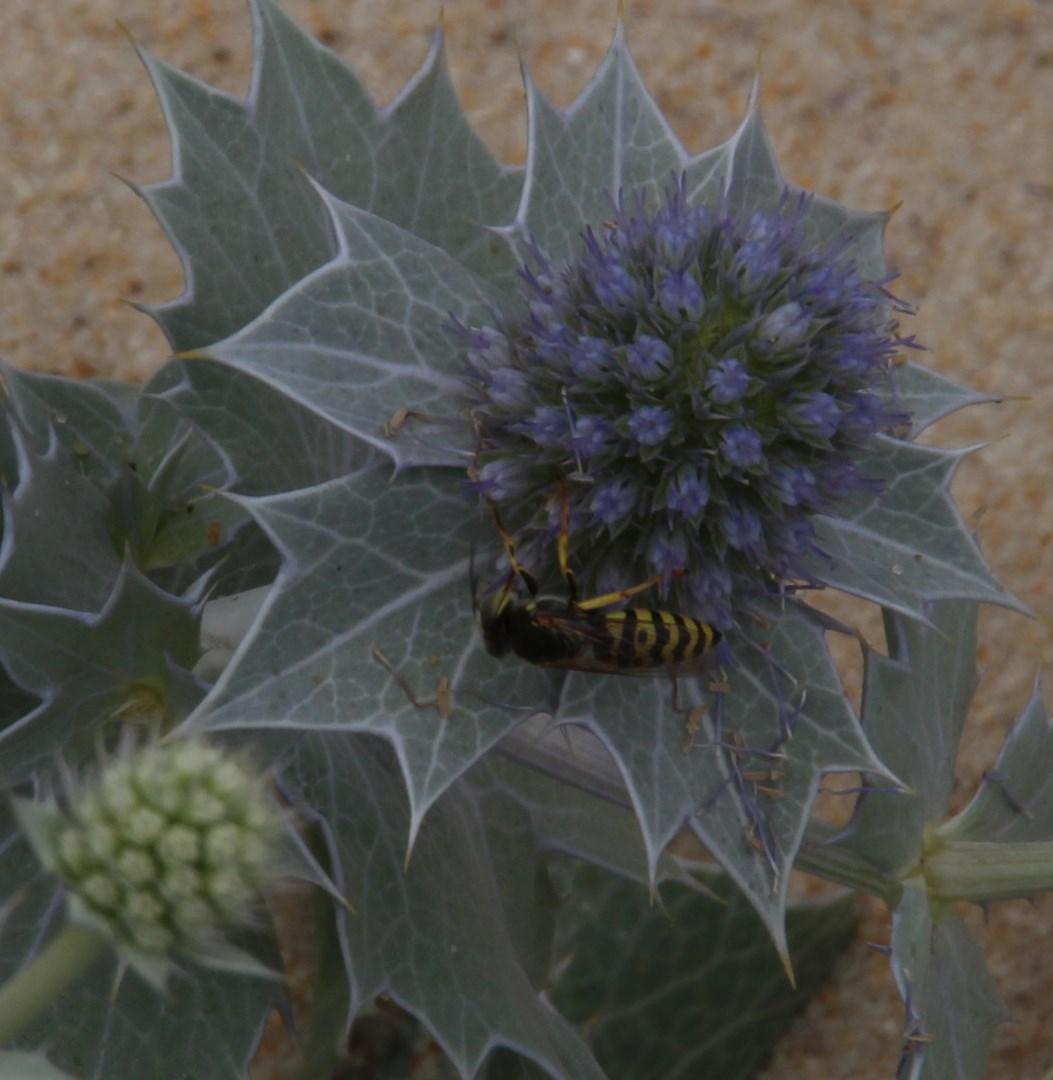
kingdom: Animalia
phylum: Arthropoda
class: Insecta
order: Hymenoptera
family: Crabronidae
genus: Bembix
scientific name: Bembix oculata
